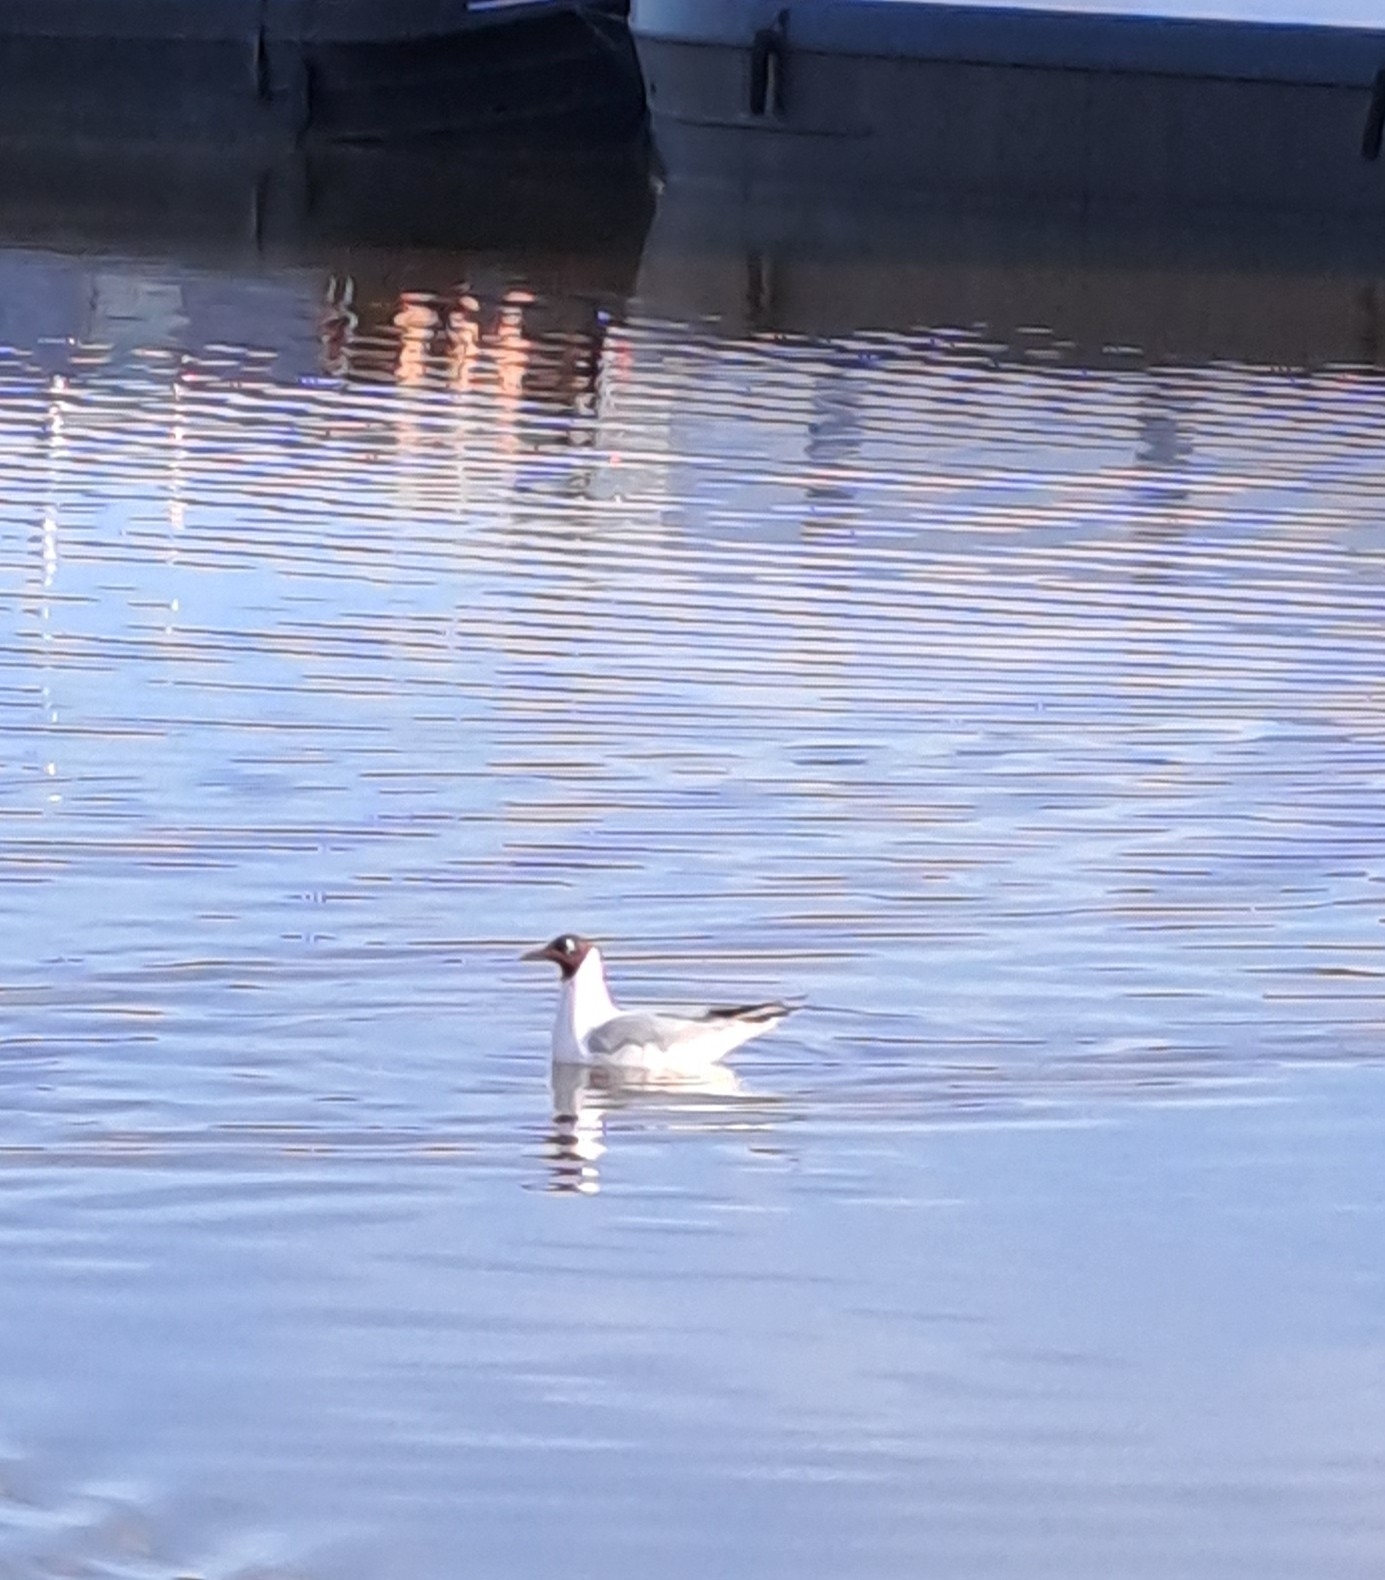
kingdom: Animalia
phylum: Chordata
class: Aves
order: Charadriiformes
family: Laridae
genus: Chroicocephalus
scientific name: Chroicocephalus ridibundus
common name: Black-headed gull
